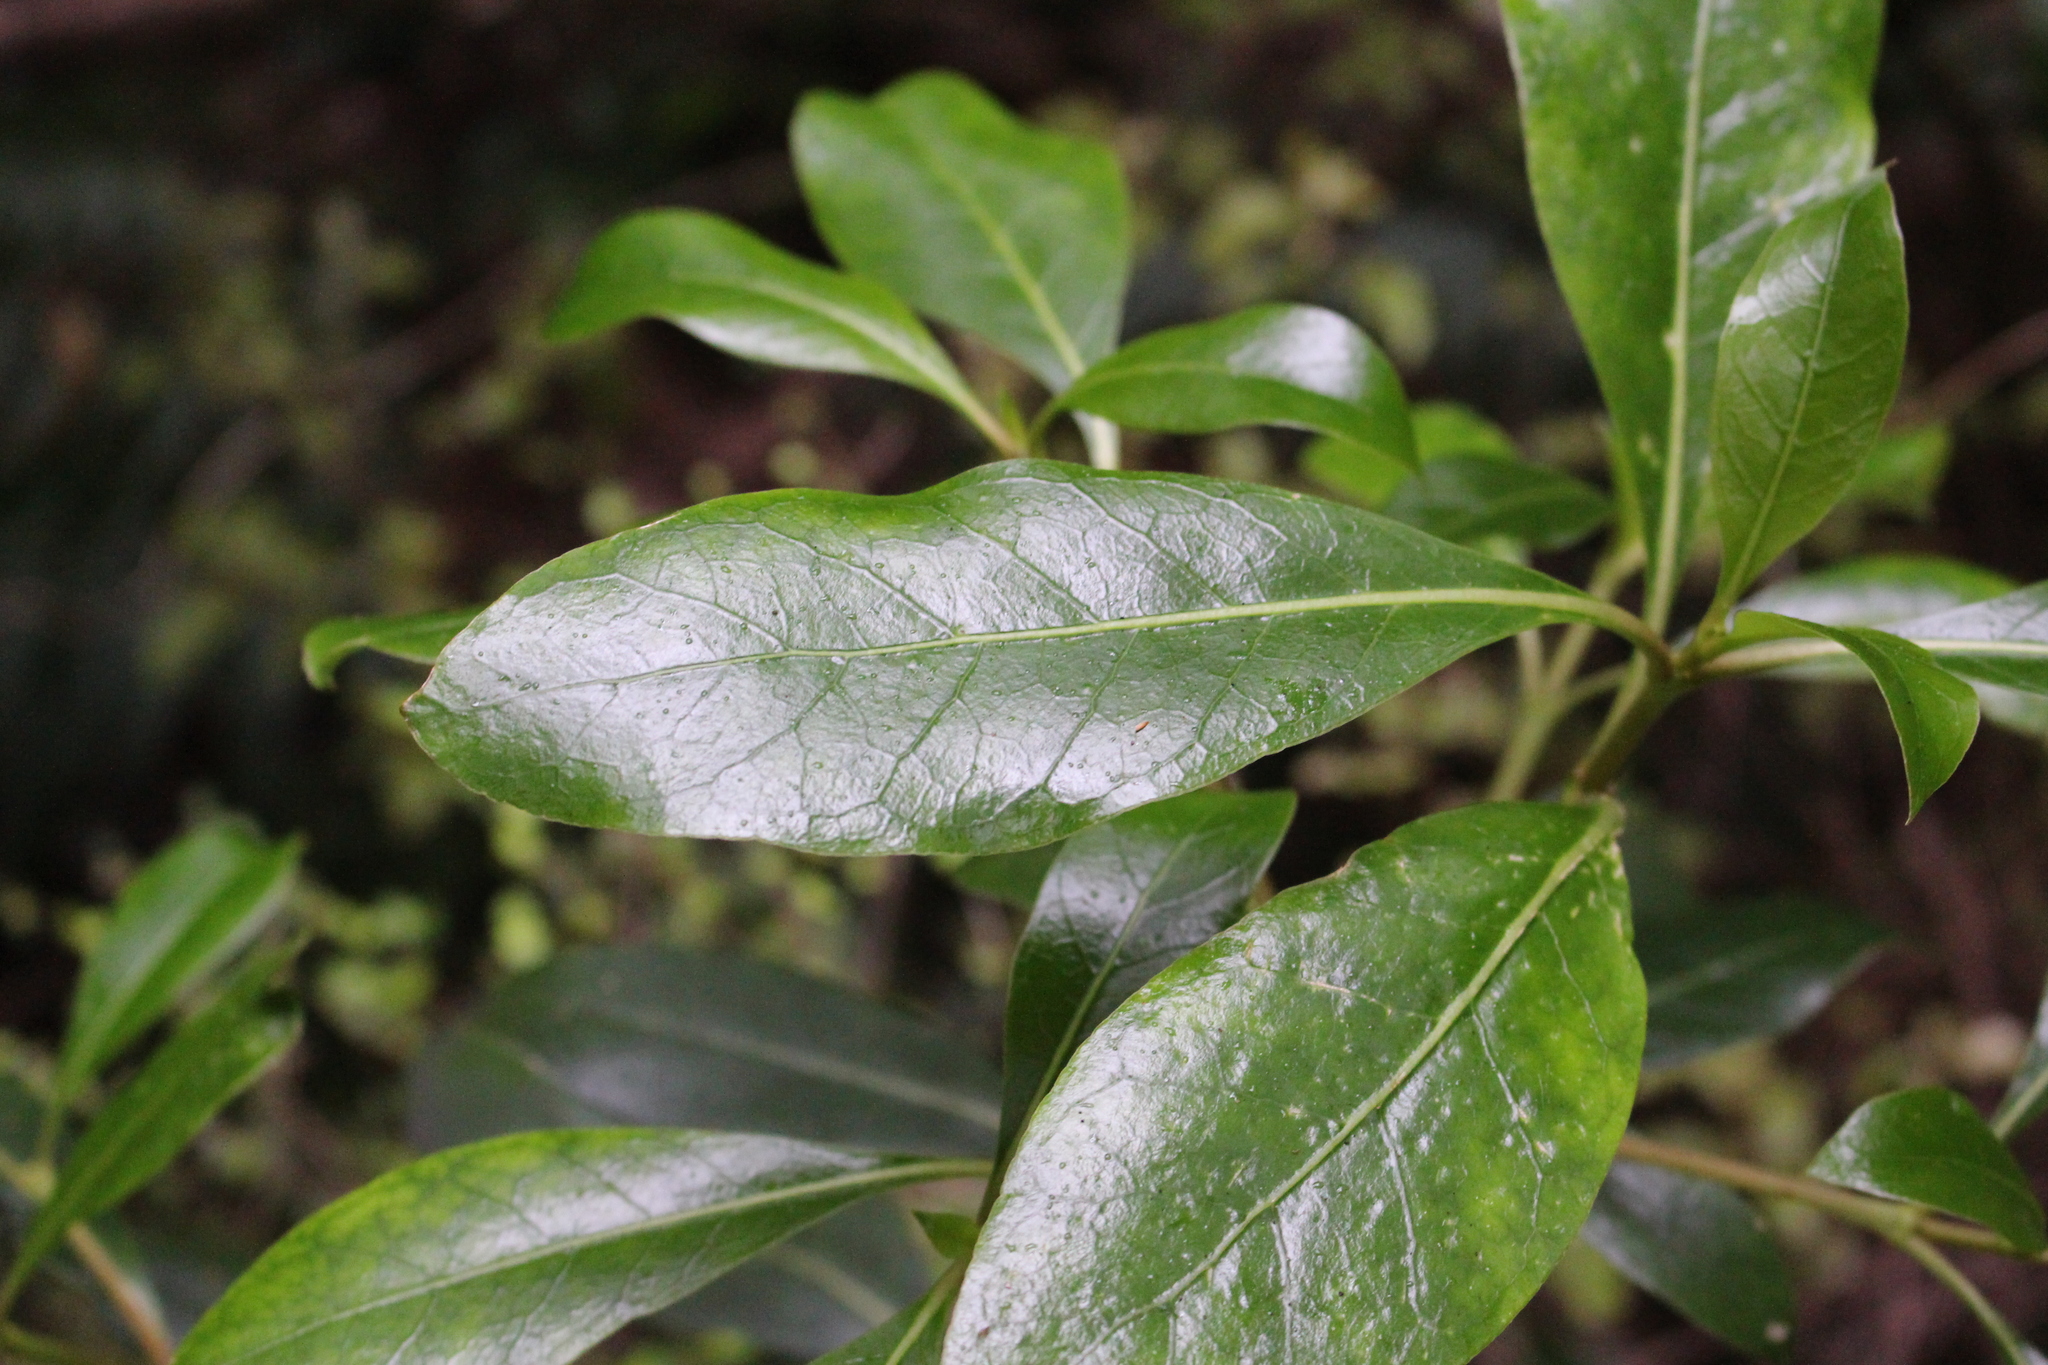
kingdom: Plantae
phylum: Tracheophyta
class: Magnoliopsida
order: Gentianales
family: Rubiaceae
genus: Coprosma
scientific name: Coprosma lucida
